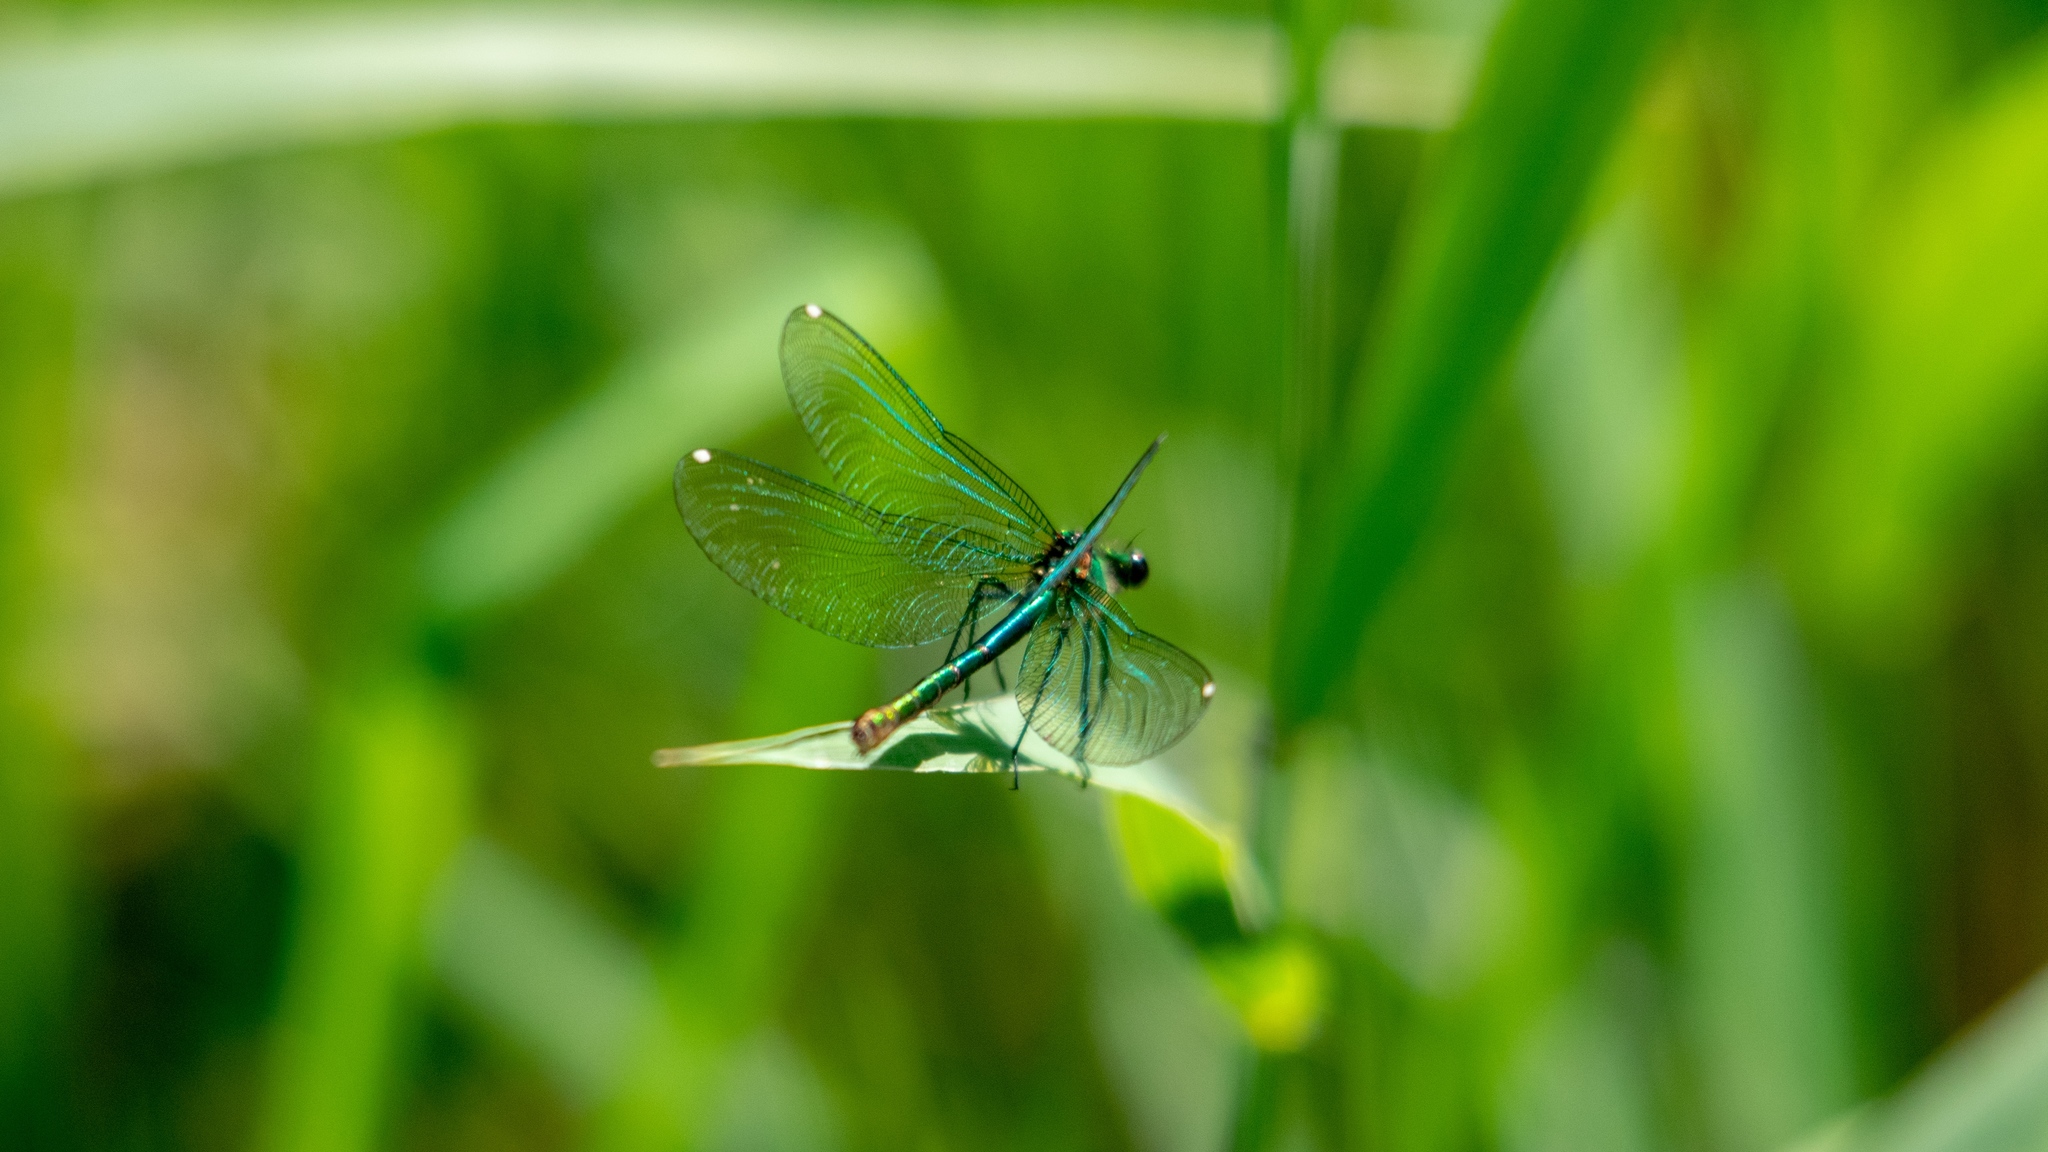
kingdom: Animalia
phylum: Arthropoda
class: Insecta
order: Odonata
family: Calopterygidae
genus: Calopteryx
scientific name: Calopteryx splendens
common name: Banded demoiselle
